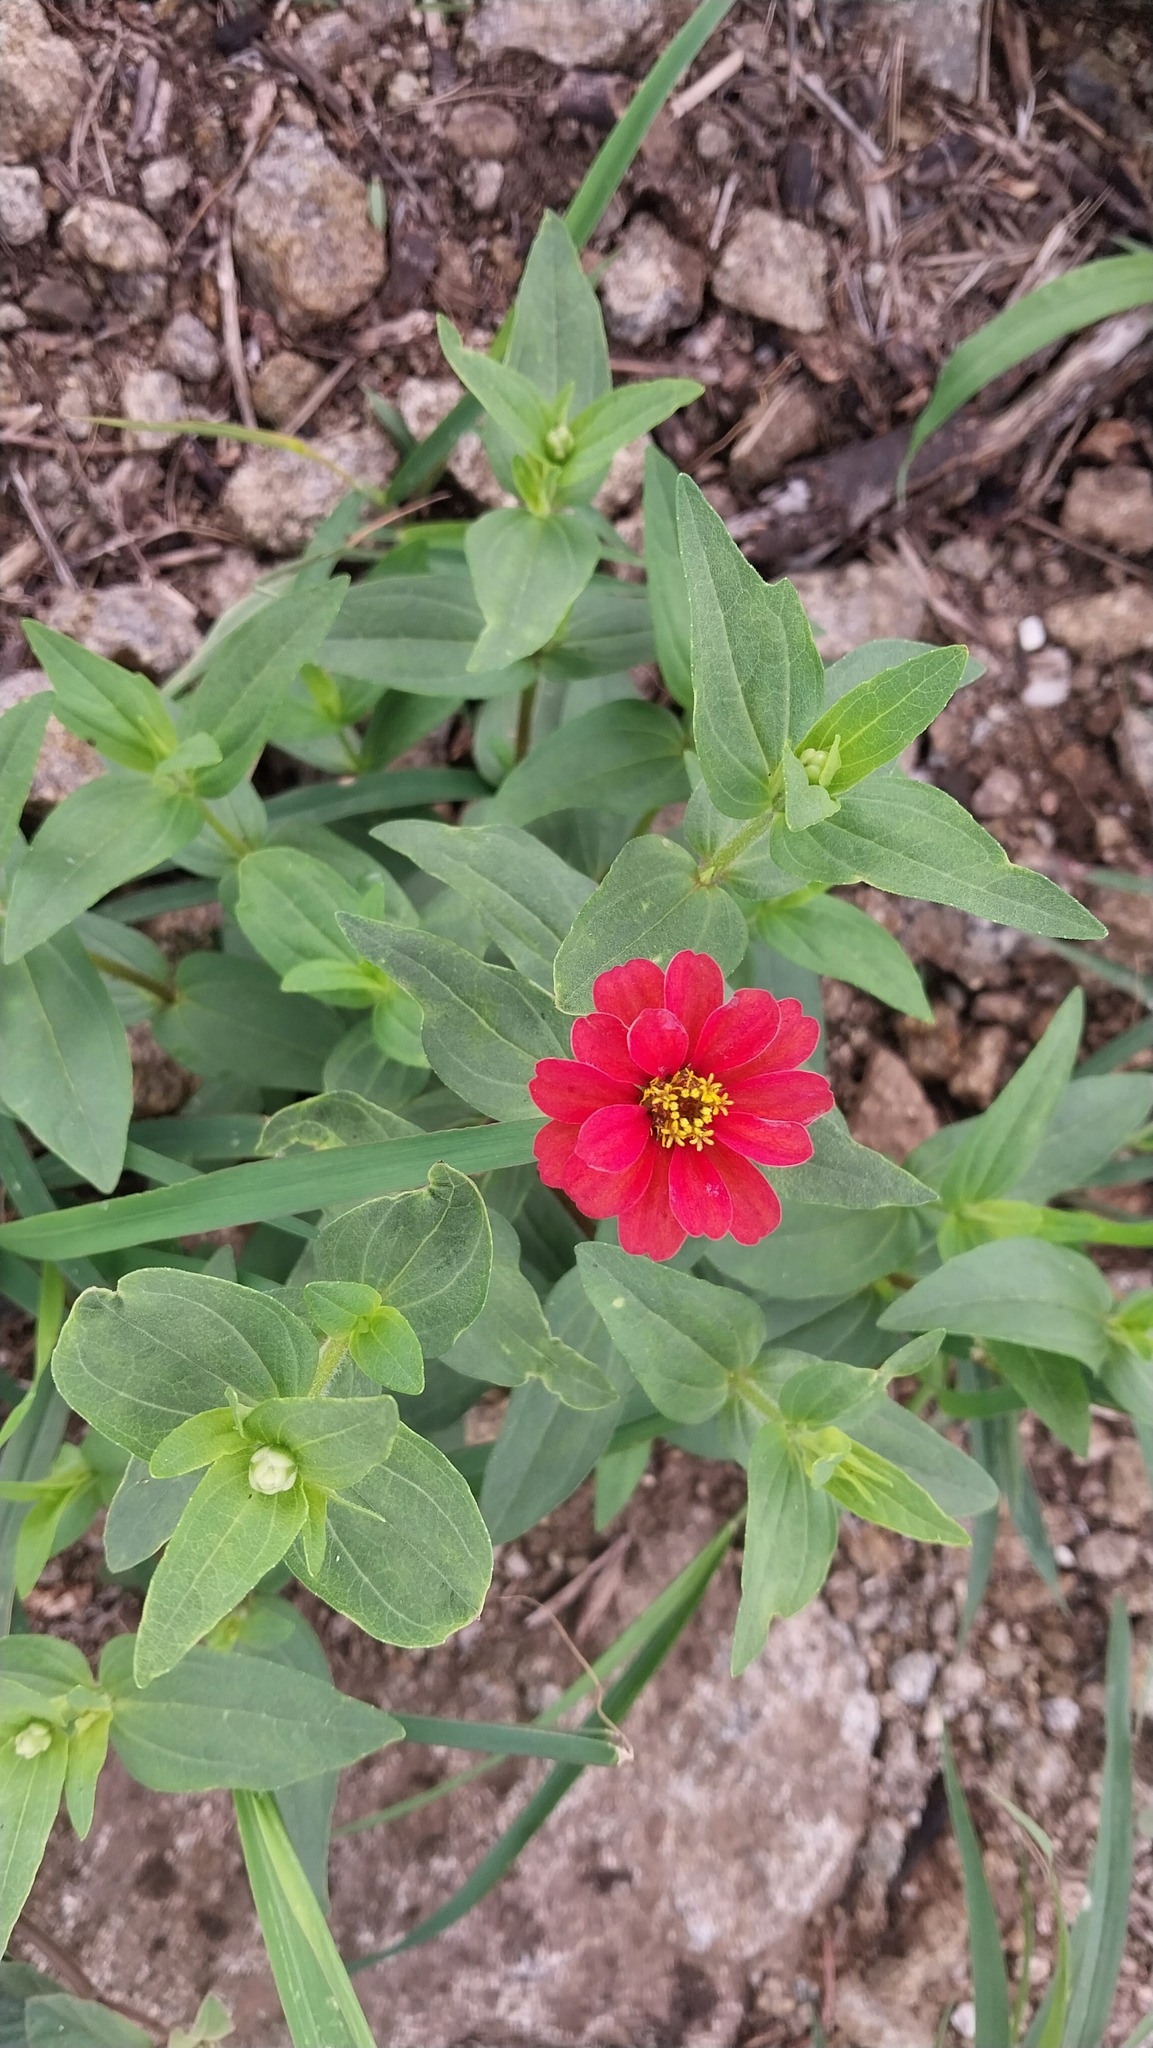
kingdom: Plantae
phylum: Tracheophyta
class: Magnoliopsida
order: Asterales
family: Asteraceae
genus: Zinnia
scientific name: Zinnia peruviana
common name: Peruvian zinnia
